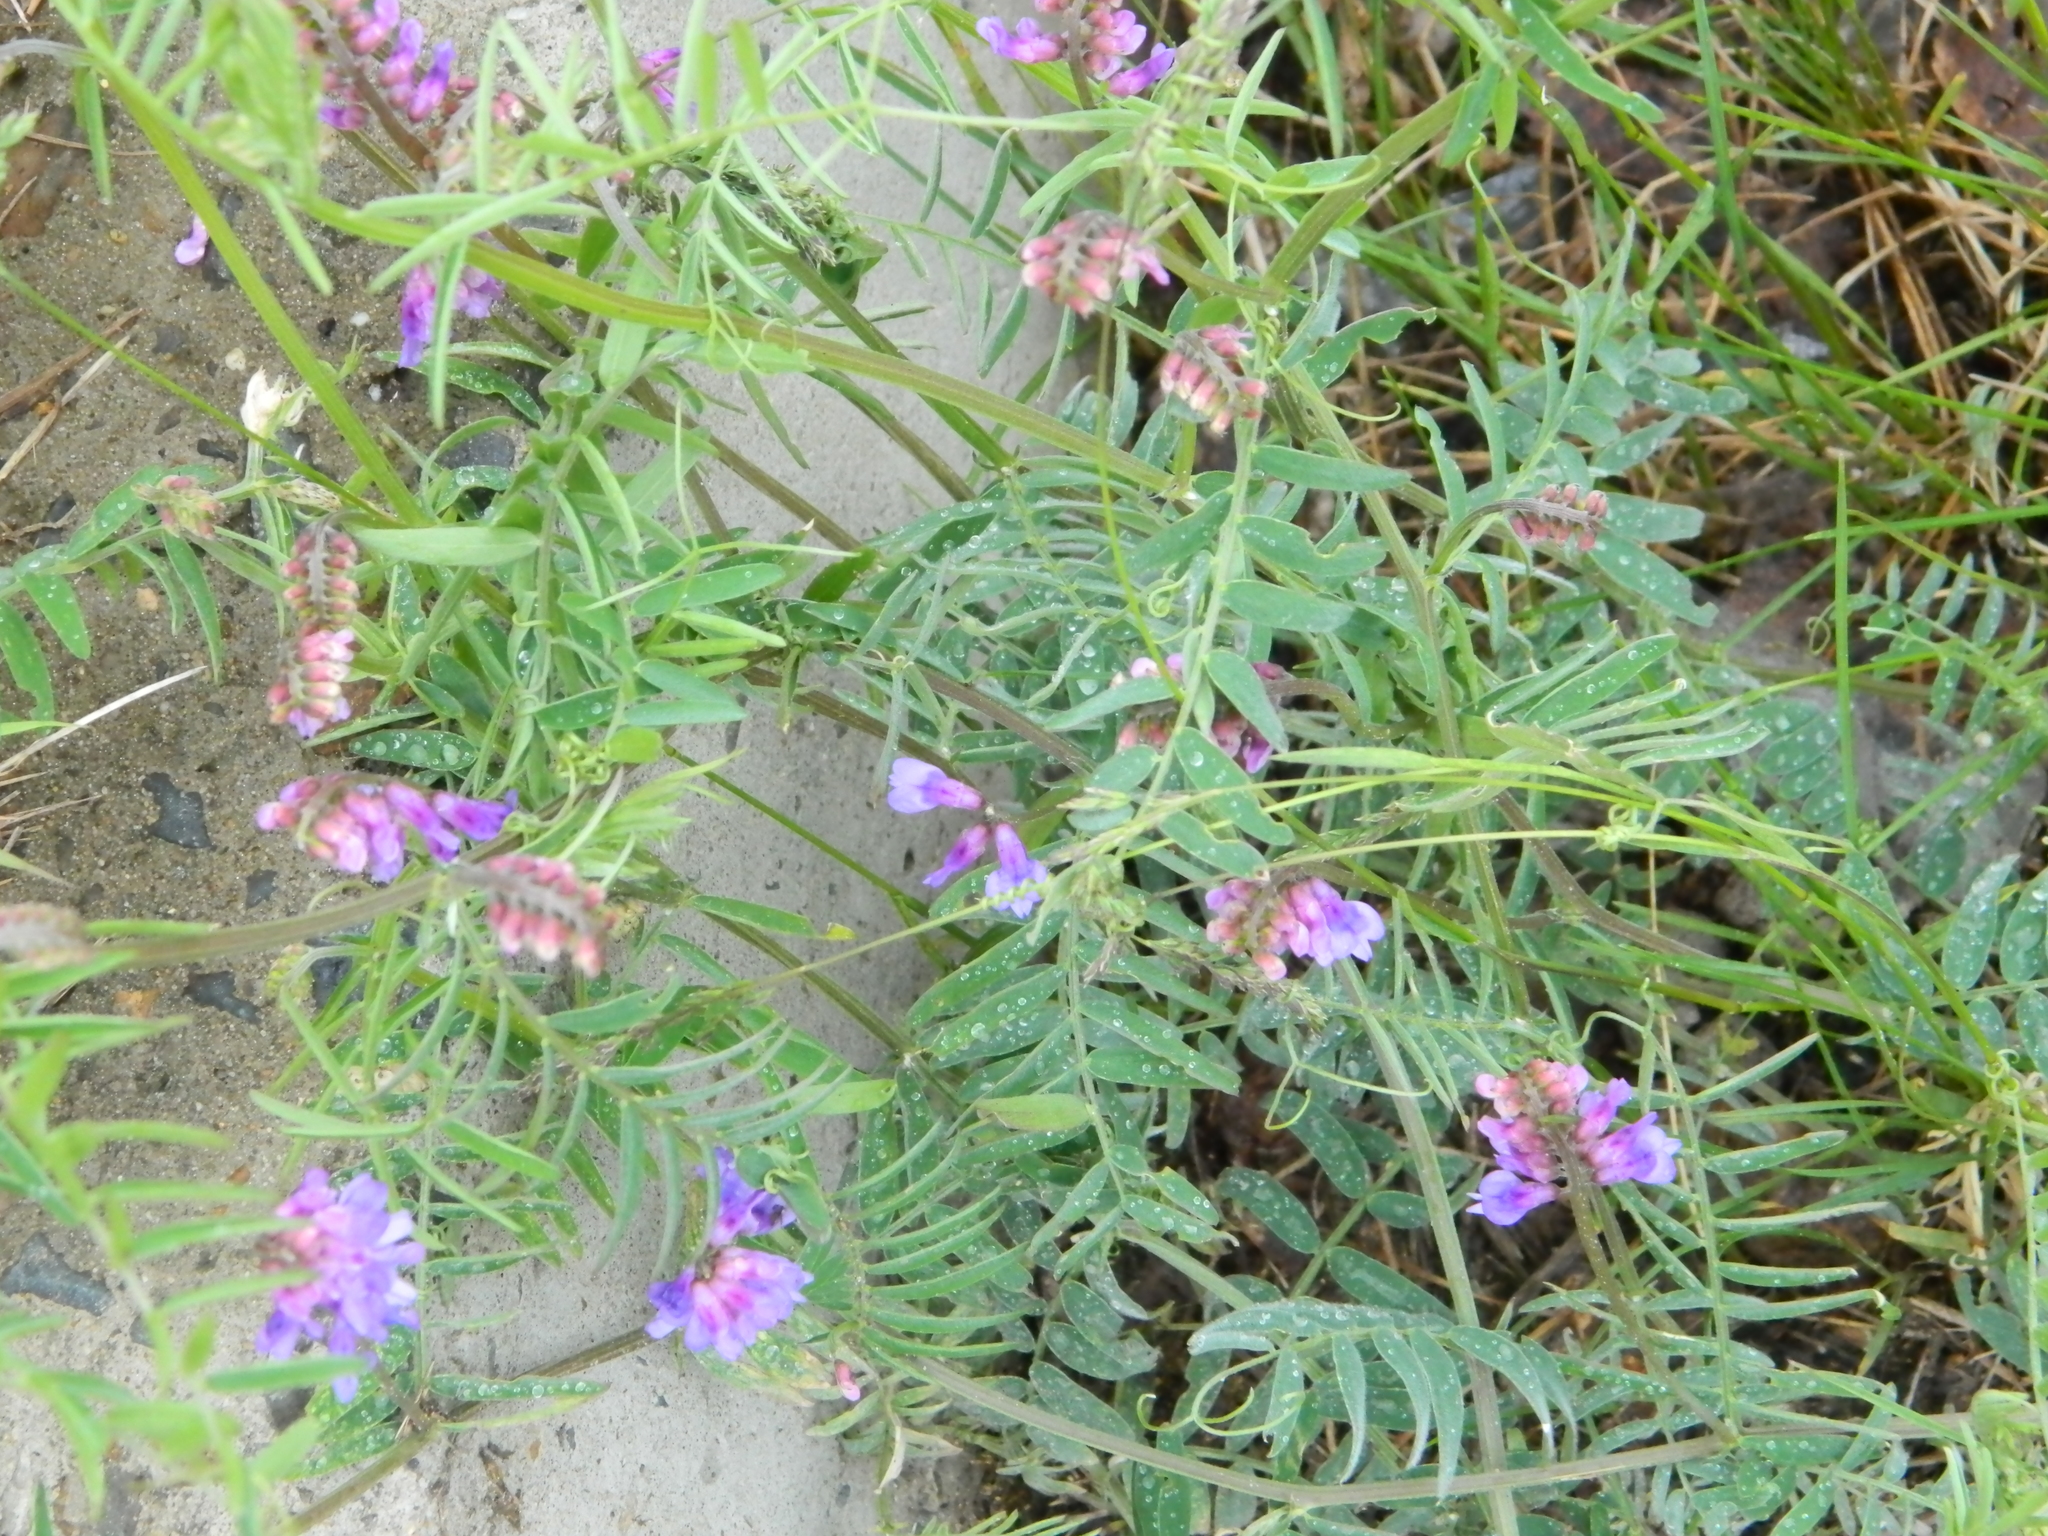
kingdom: Plantae
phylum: Tracheophyta
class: Magnoliopsida
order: Fabales
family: Fabaceae
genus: Vicia
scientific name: Vicia cracca
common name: Bird vetch
